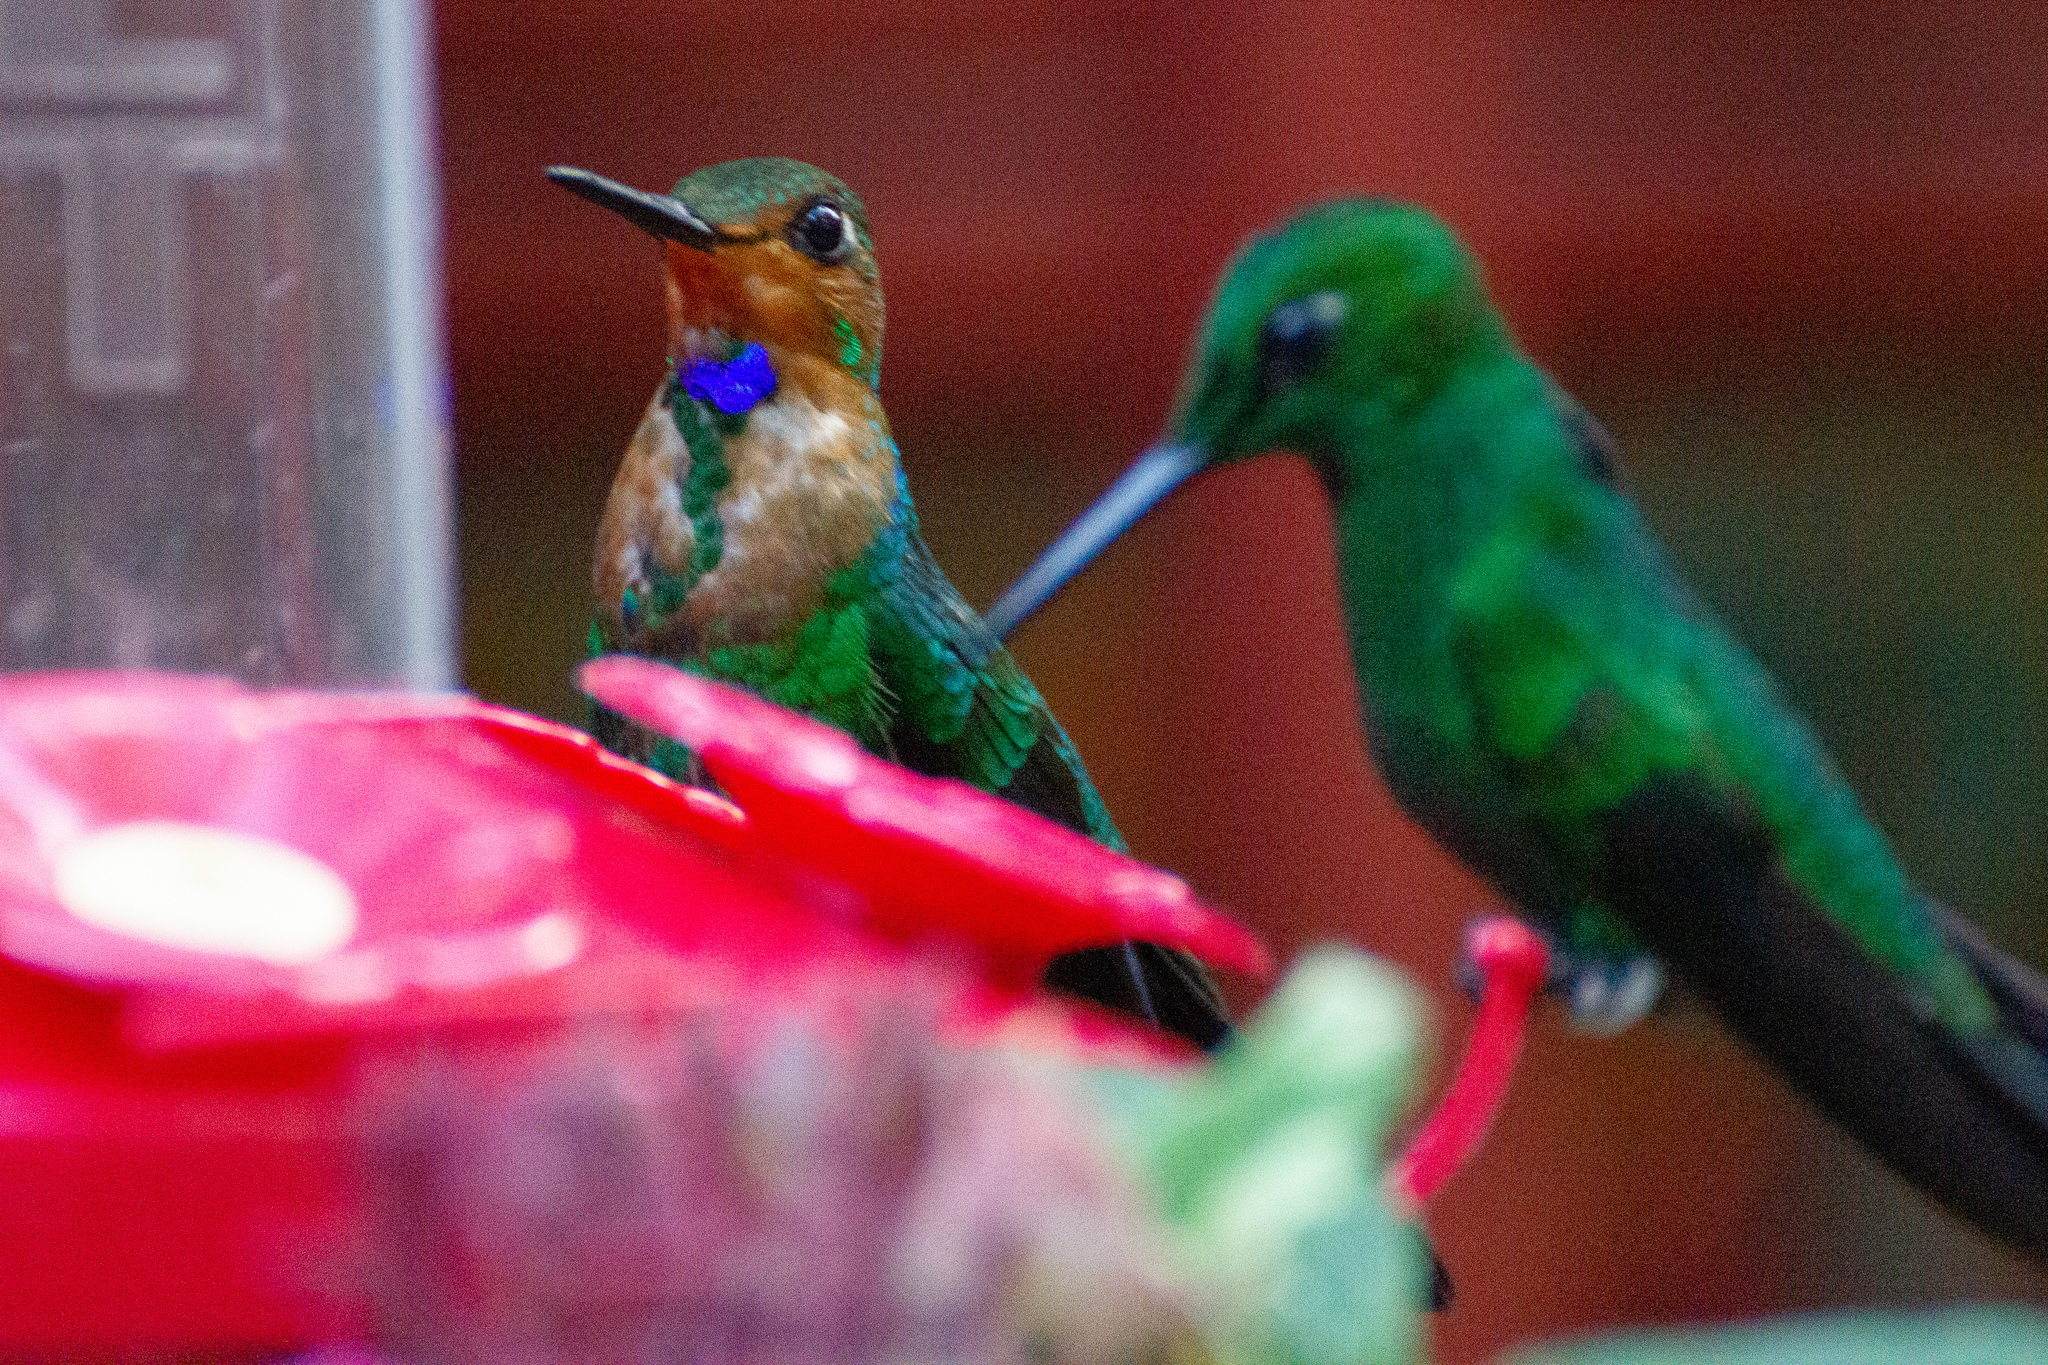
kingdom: Animalia
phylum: Chordata
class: Aves
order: Apodiformes
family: Trochilidae
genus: Heliodoxa
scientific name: Heliodoxa jacula
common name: Green-crowned brilliant
